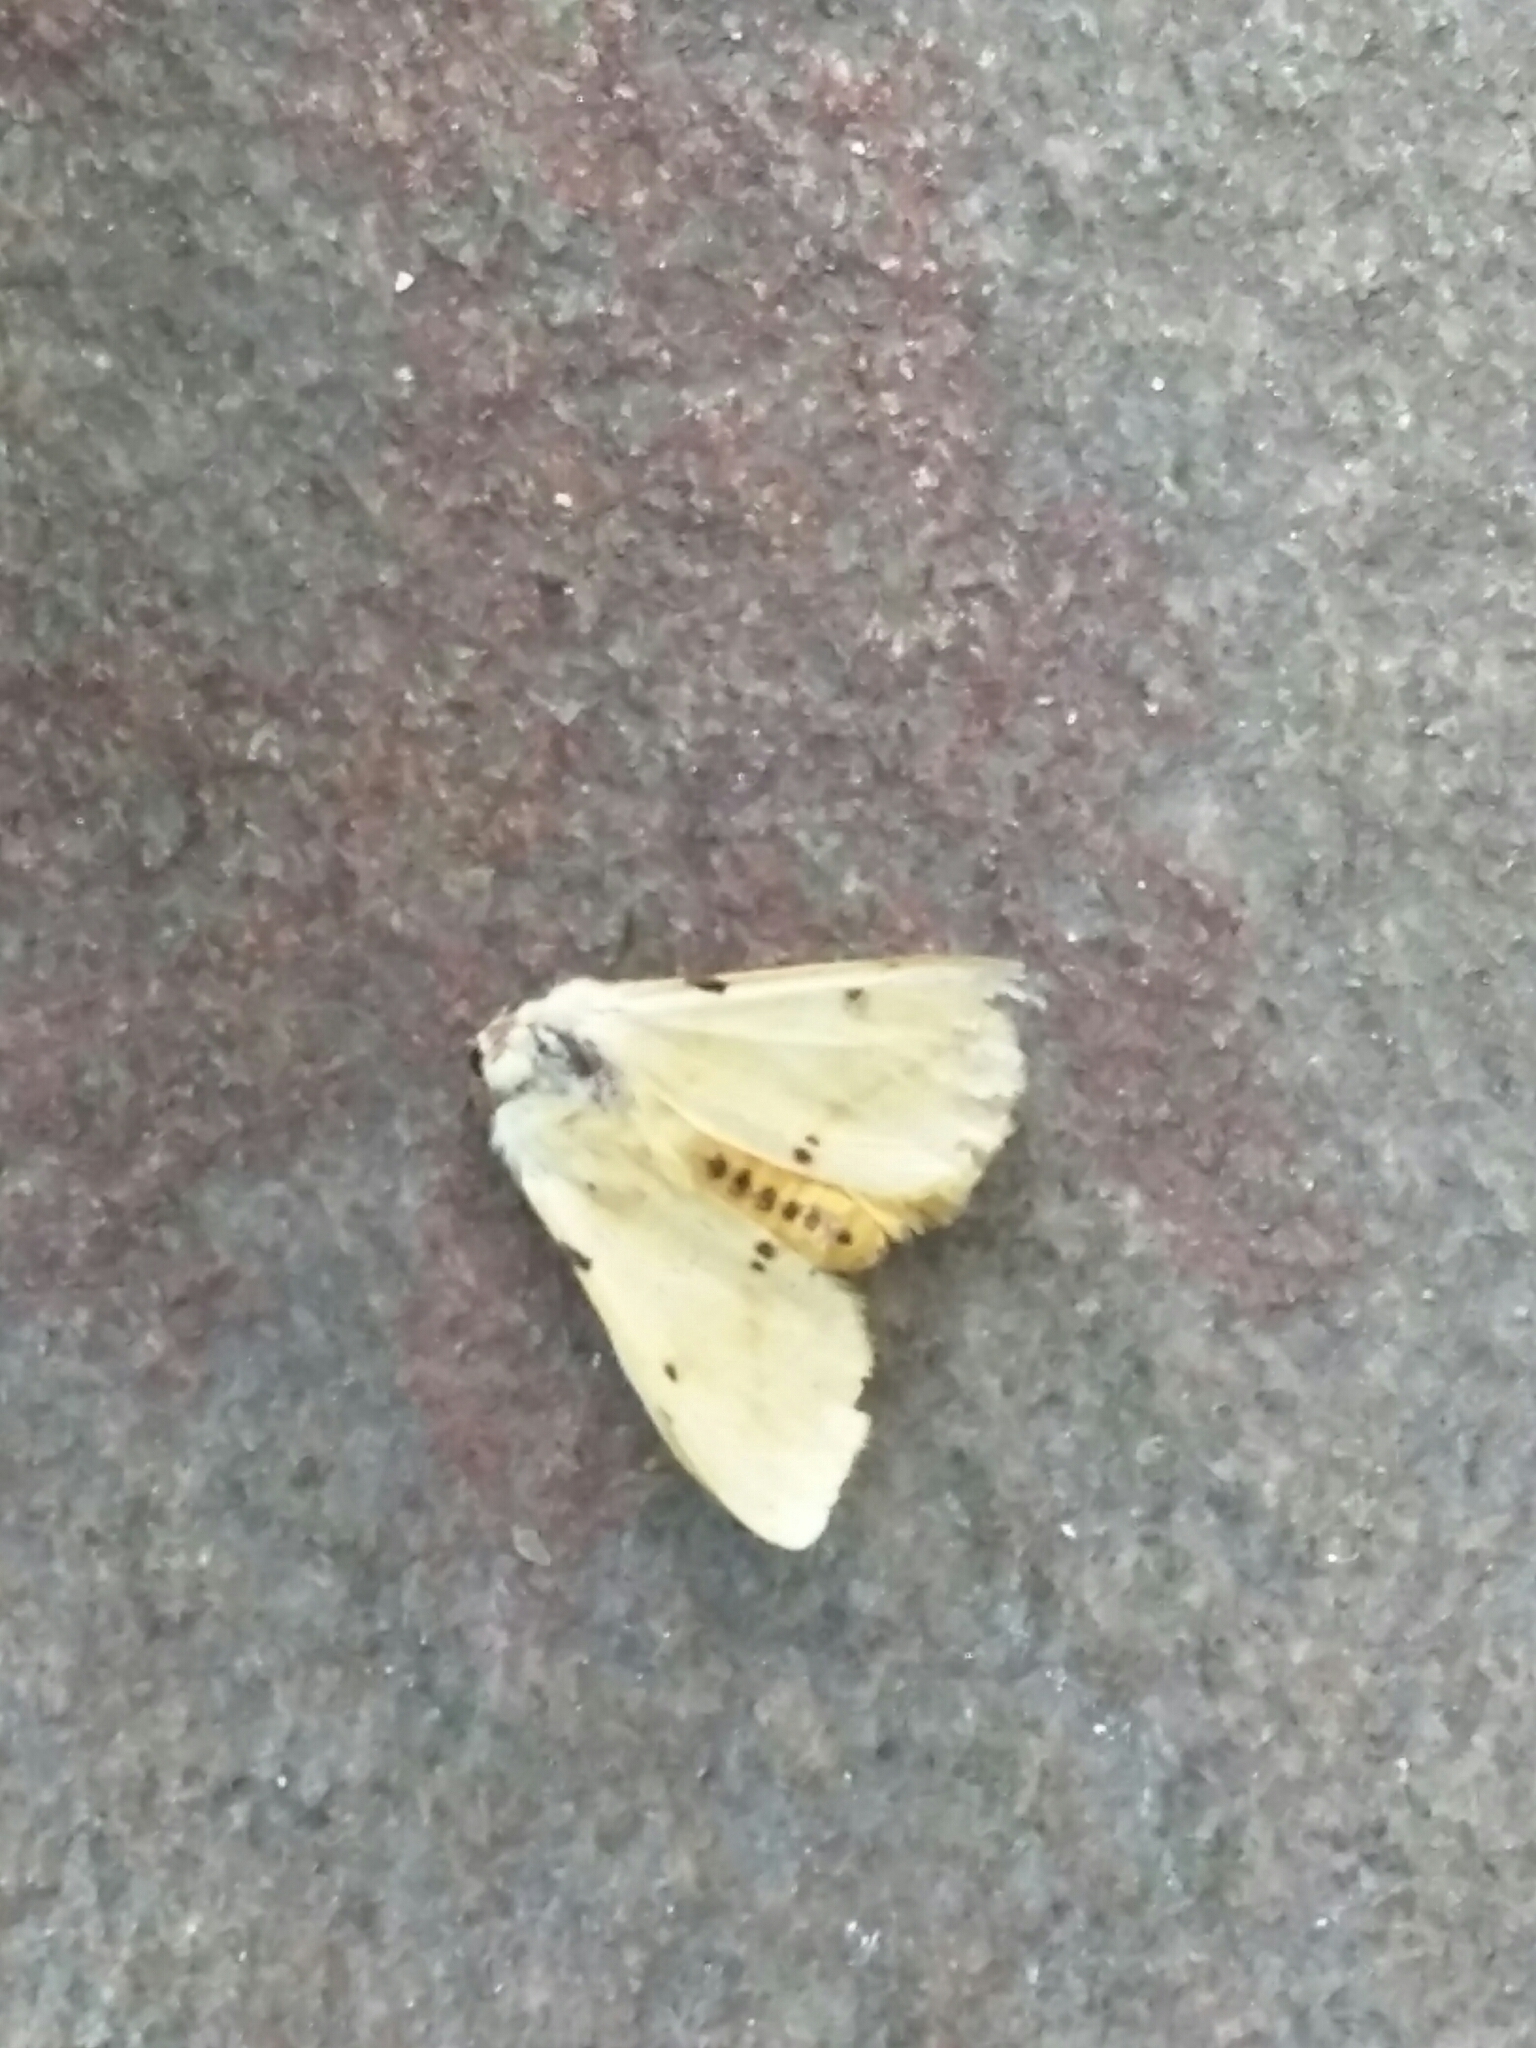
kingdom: Animalia
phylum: Arthropoda
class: Insecta
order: Lepidoptera
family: Erebidae
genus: Spilarctia
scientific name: Spilarctia lutea
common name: Buff ermine
